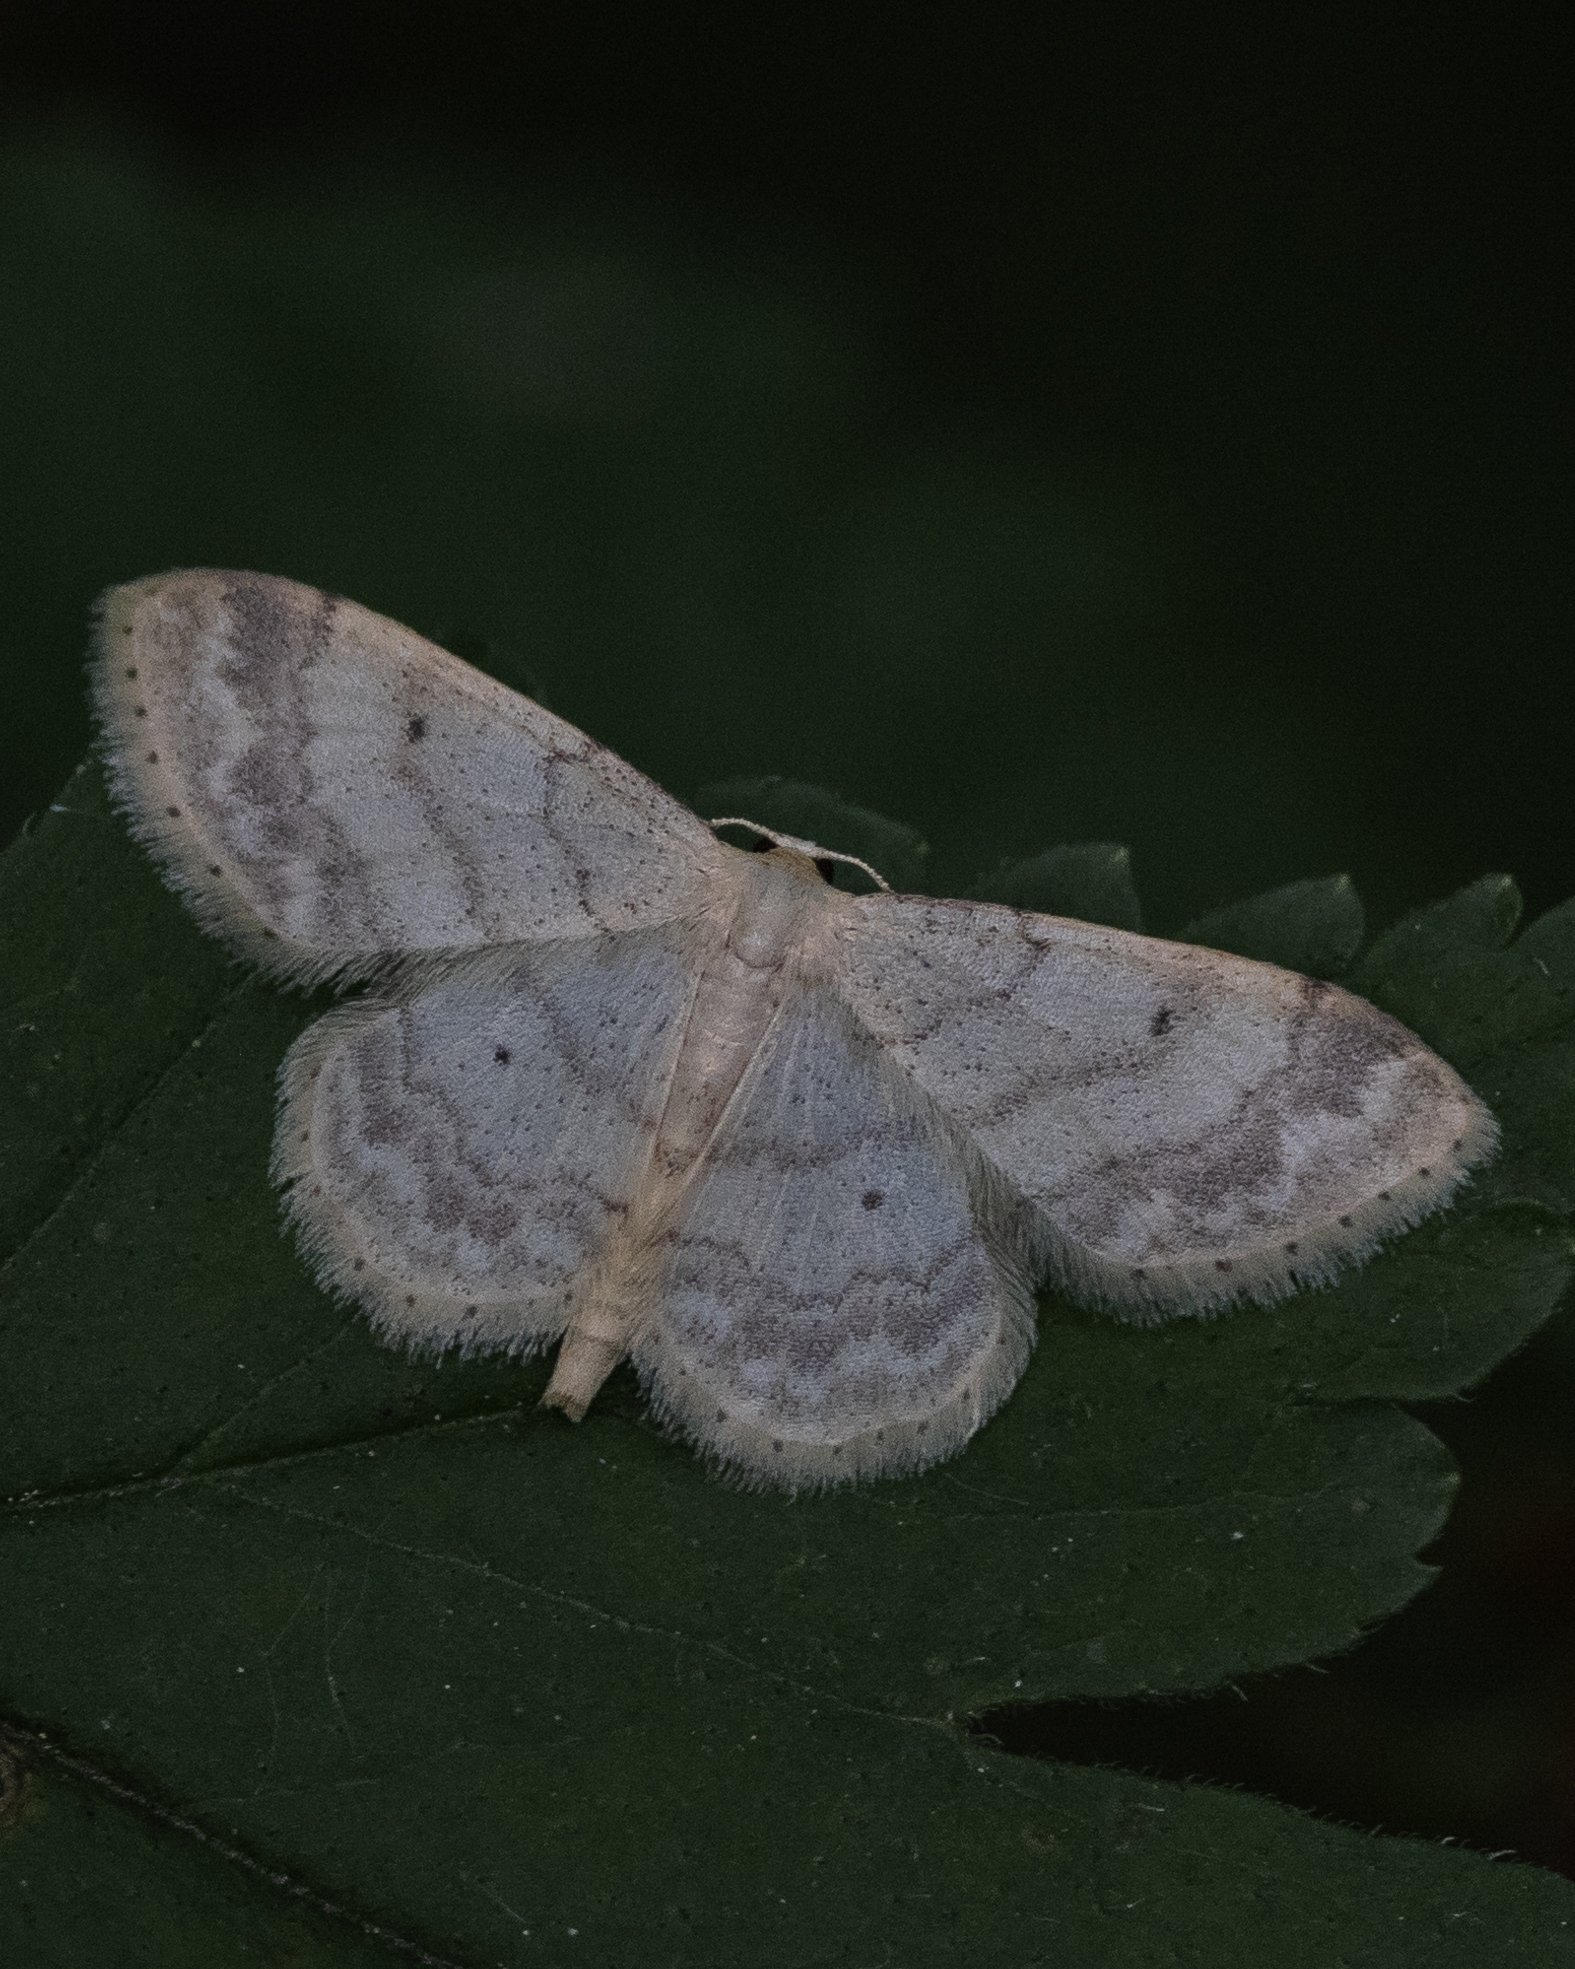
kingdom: Animalia
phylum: Arthropoda
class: Insecta
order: Lepidoptera
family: Geometridae
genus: Idaea
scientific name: Idaea biselata
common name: Small fan-footed wave
